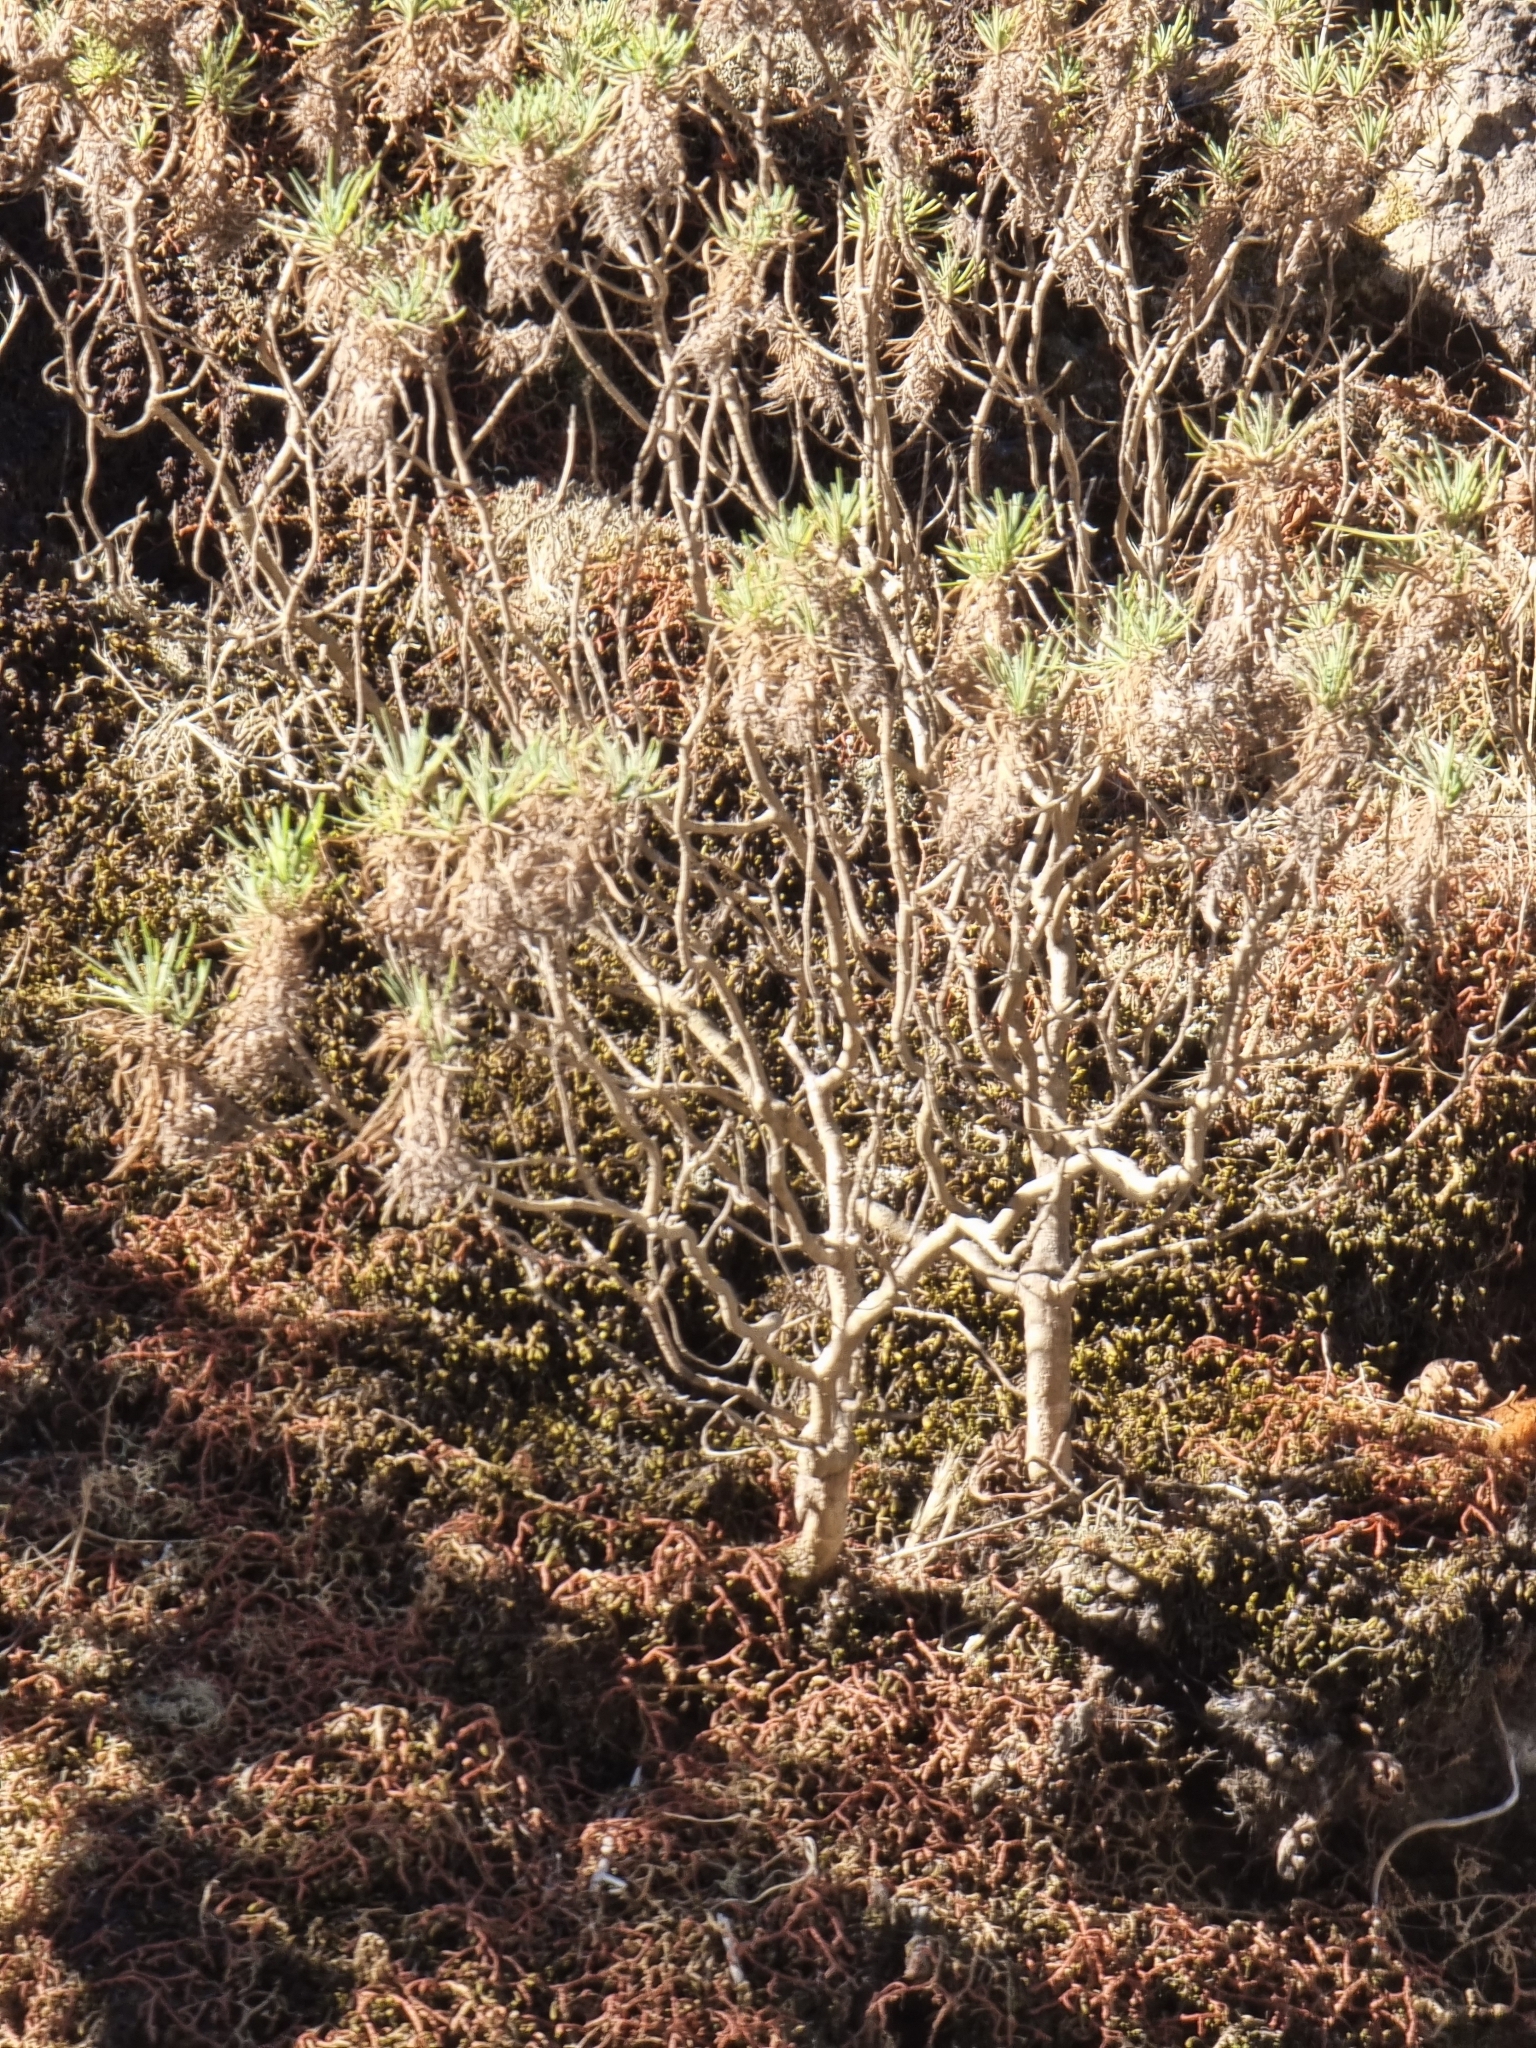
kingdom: Plantae
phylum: Tracheophyta
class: Magnoliopsida
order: Lamiales
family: Plantaginaceae
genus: Plantago
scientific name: Plantago arborescens
